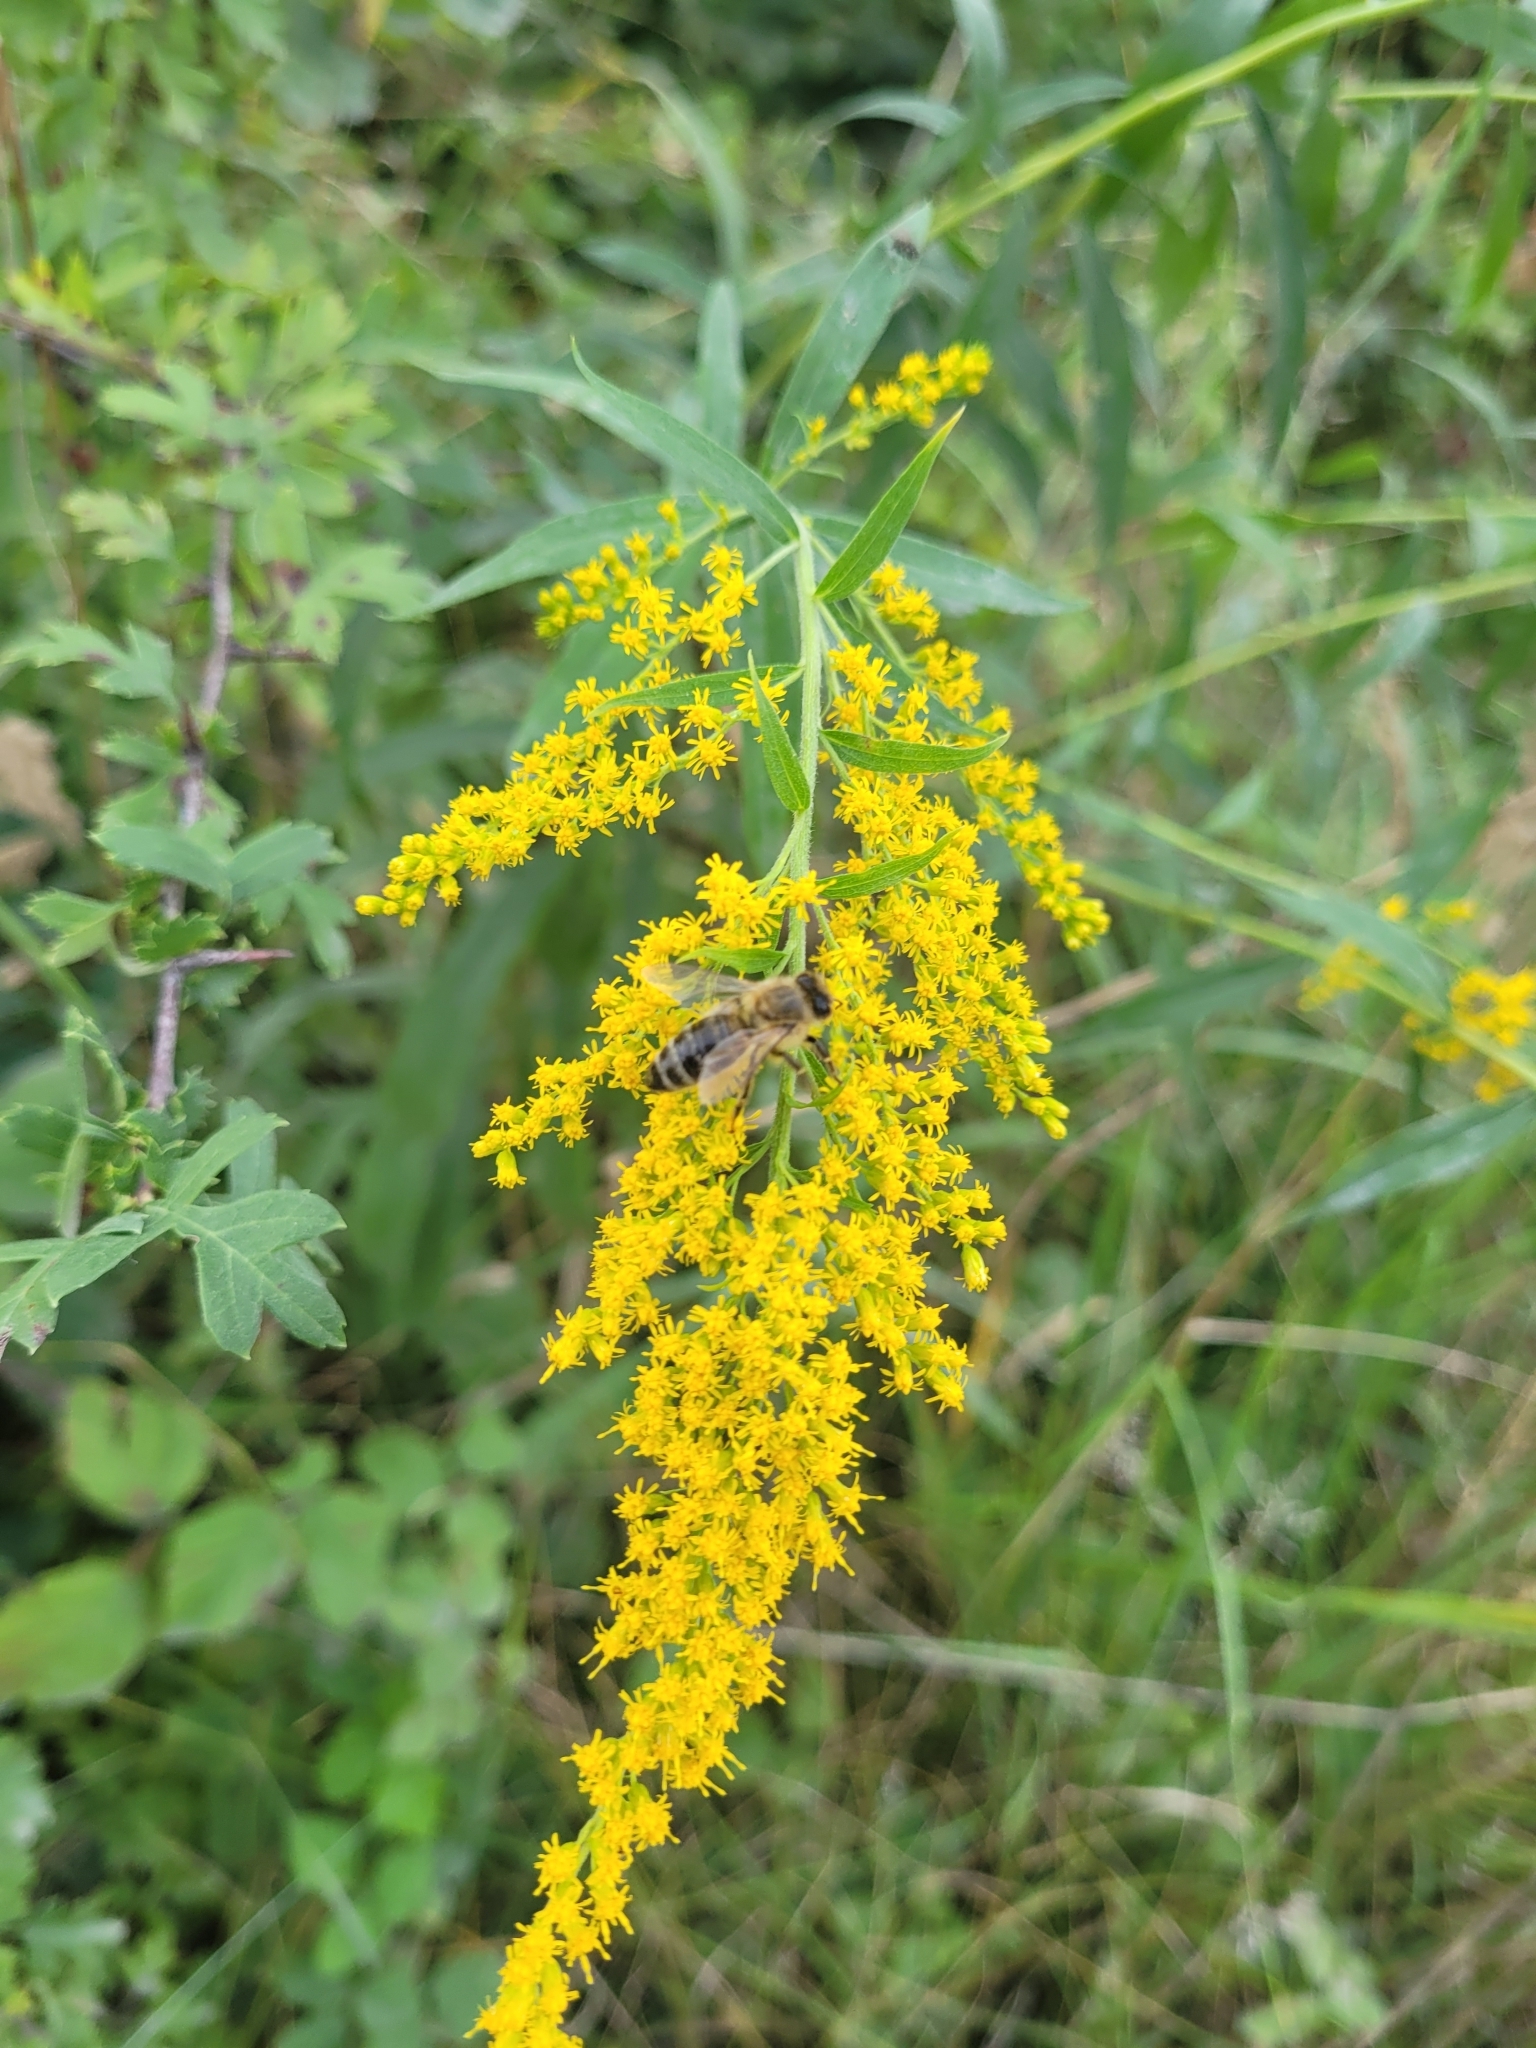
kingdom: Animalia
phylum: Arthropoda
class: Insecta
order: Hymenoptera
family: Apidae
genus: Apis
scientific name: Apis mellifera
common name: Honey bee
